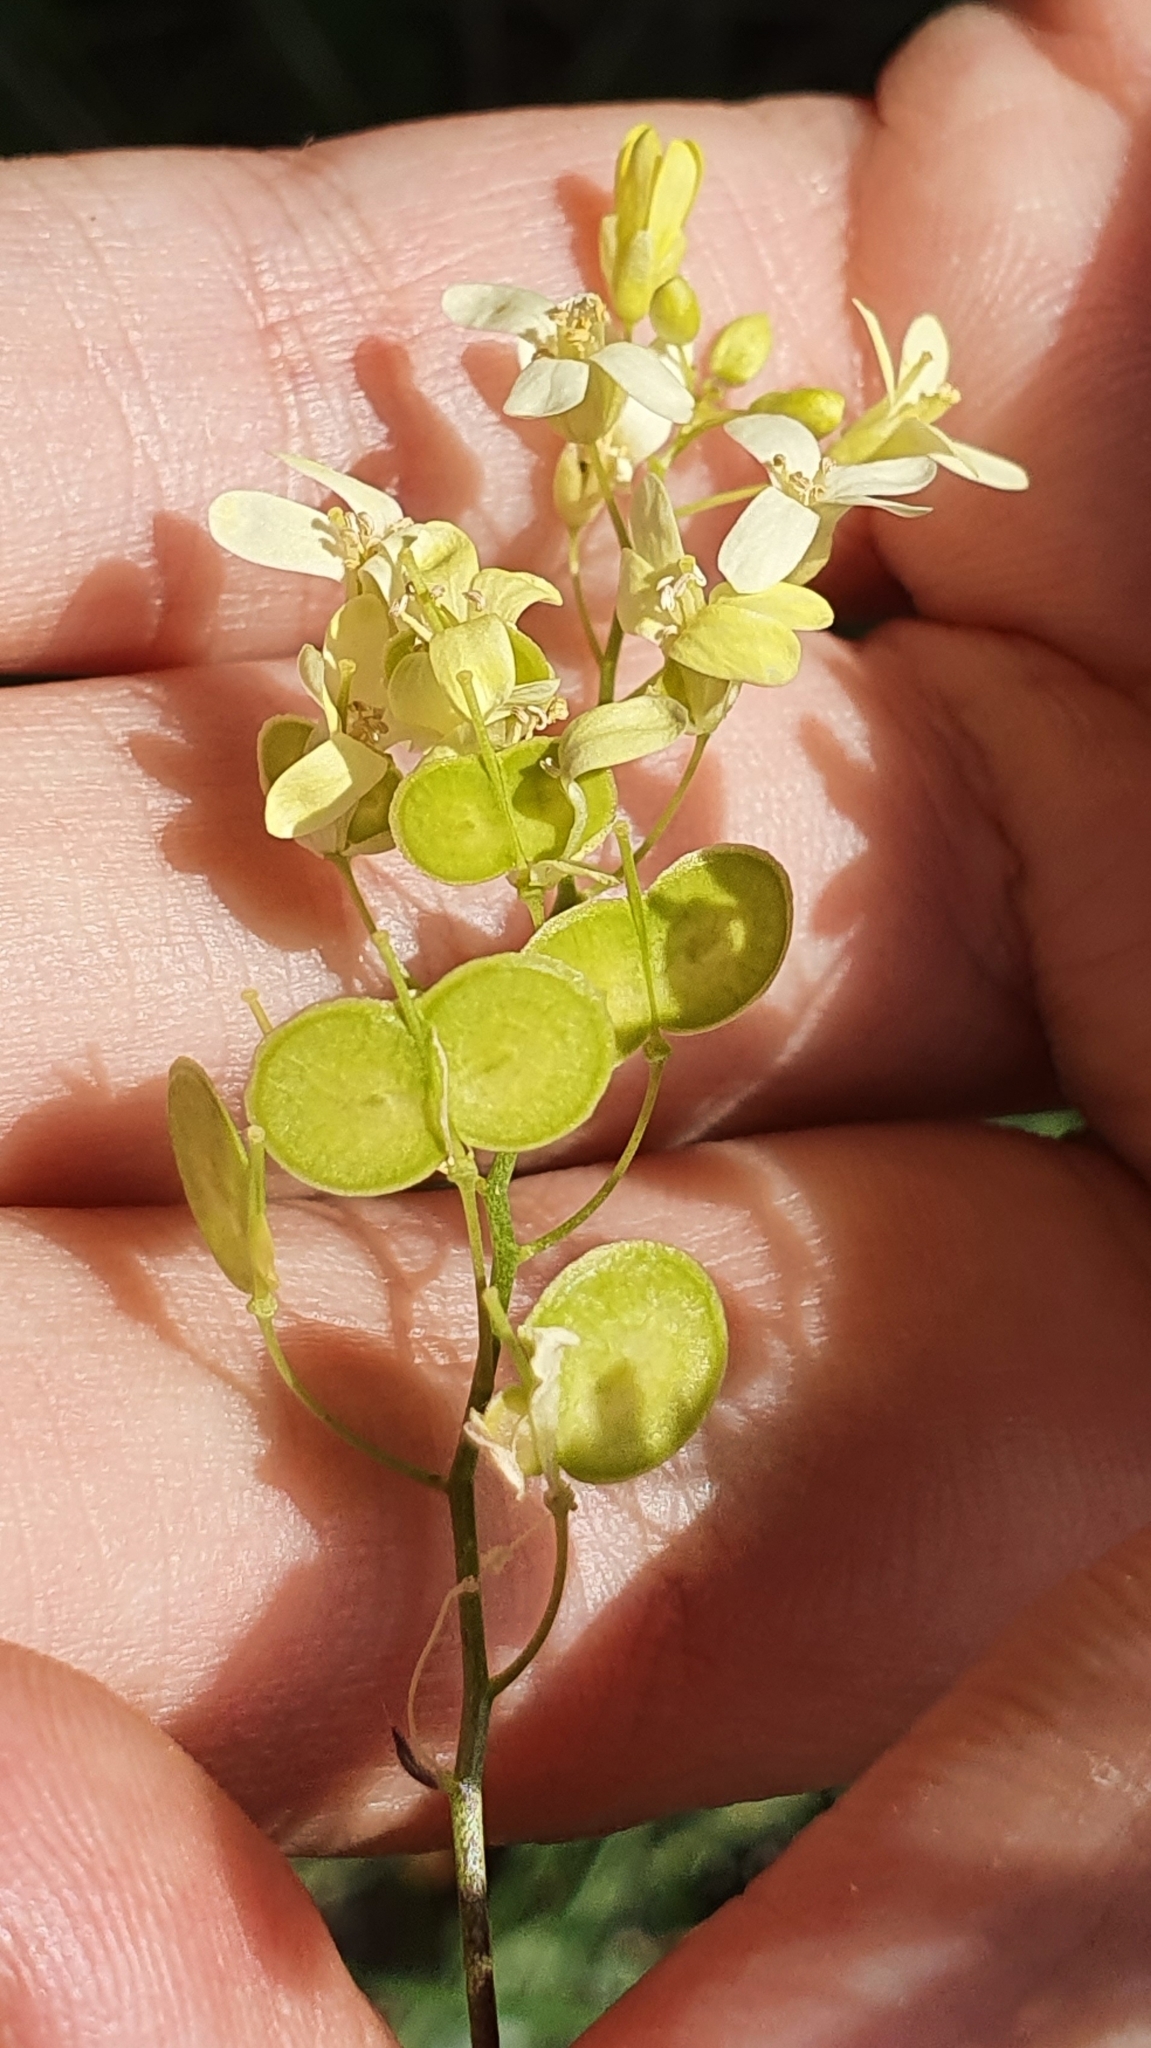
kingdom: Plantae
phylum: Tracheophyta
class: Magnoliopsida
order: Brassicales
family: Brassicaceae
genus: Biscutella
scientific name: Biscutella raphanifolia
